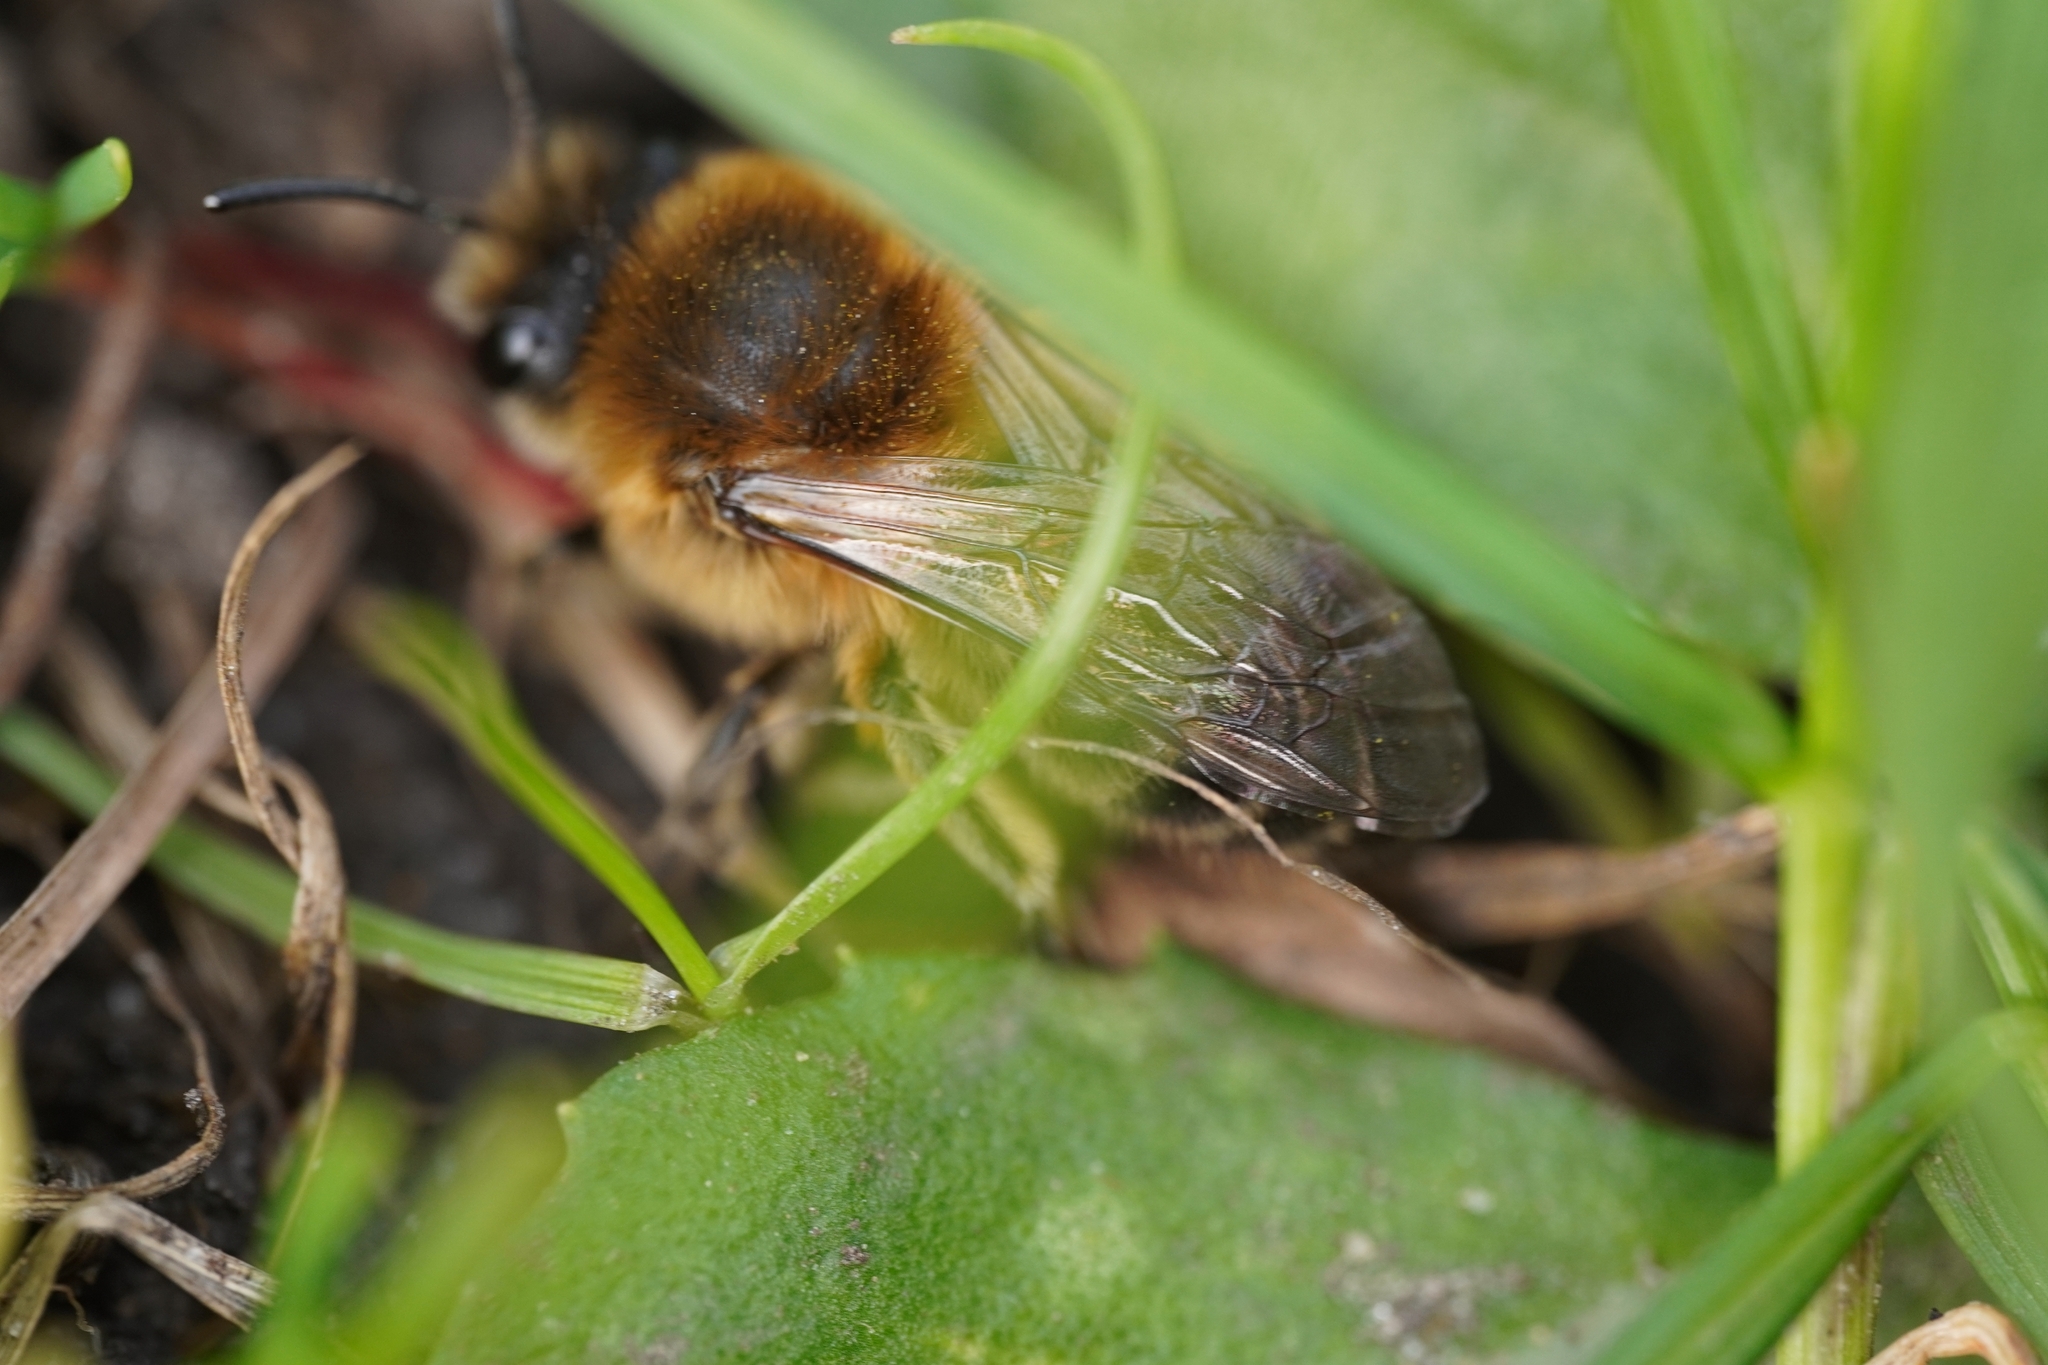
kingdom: Animalia
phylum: Arthropoda
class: Insecta
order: Hymenoptera
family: Colletidae
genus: Colletes
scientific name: Colletes cunicularius
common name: Early colletes
